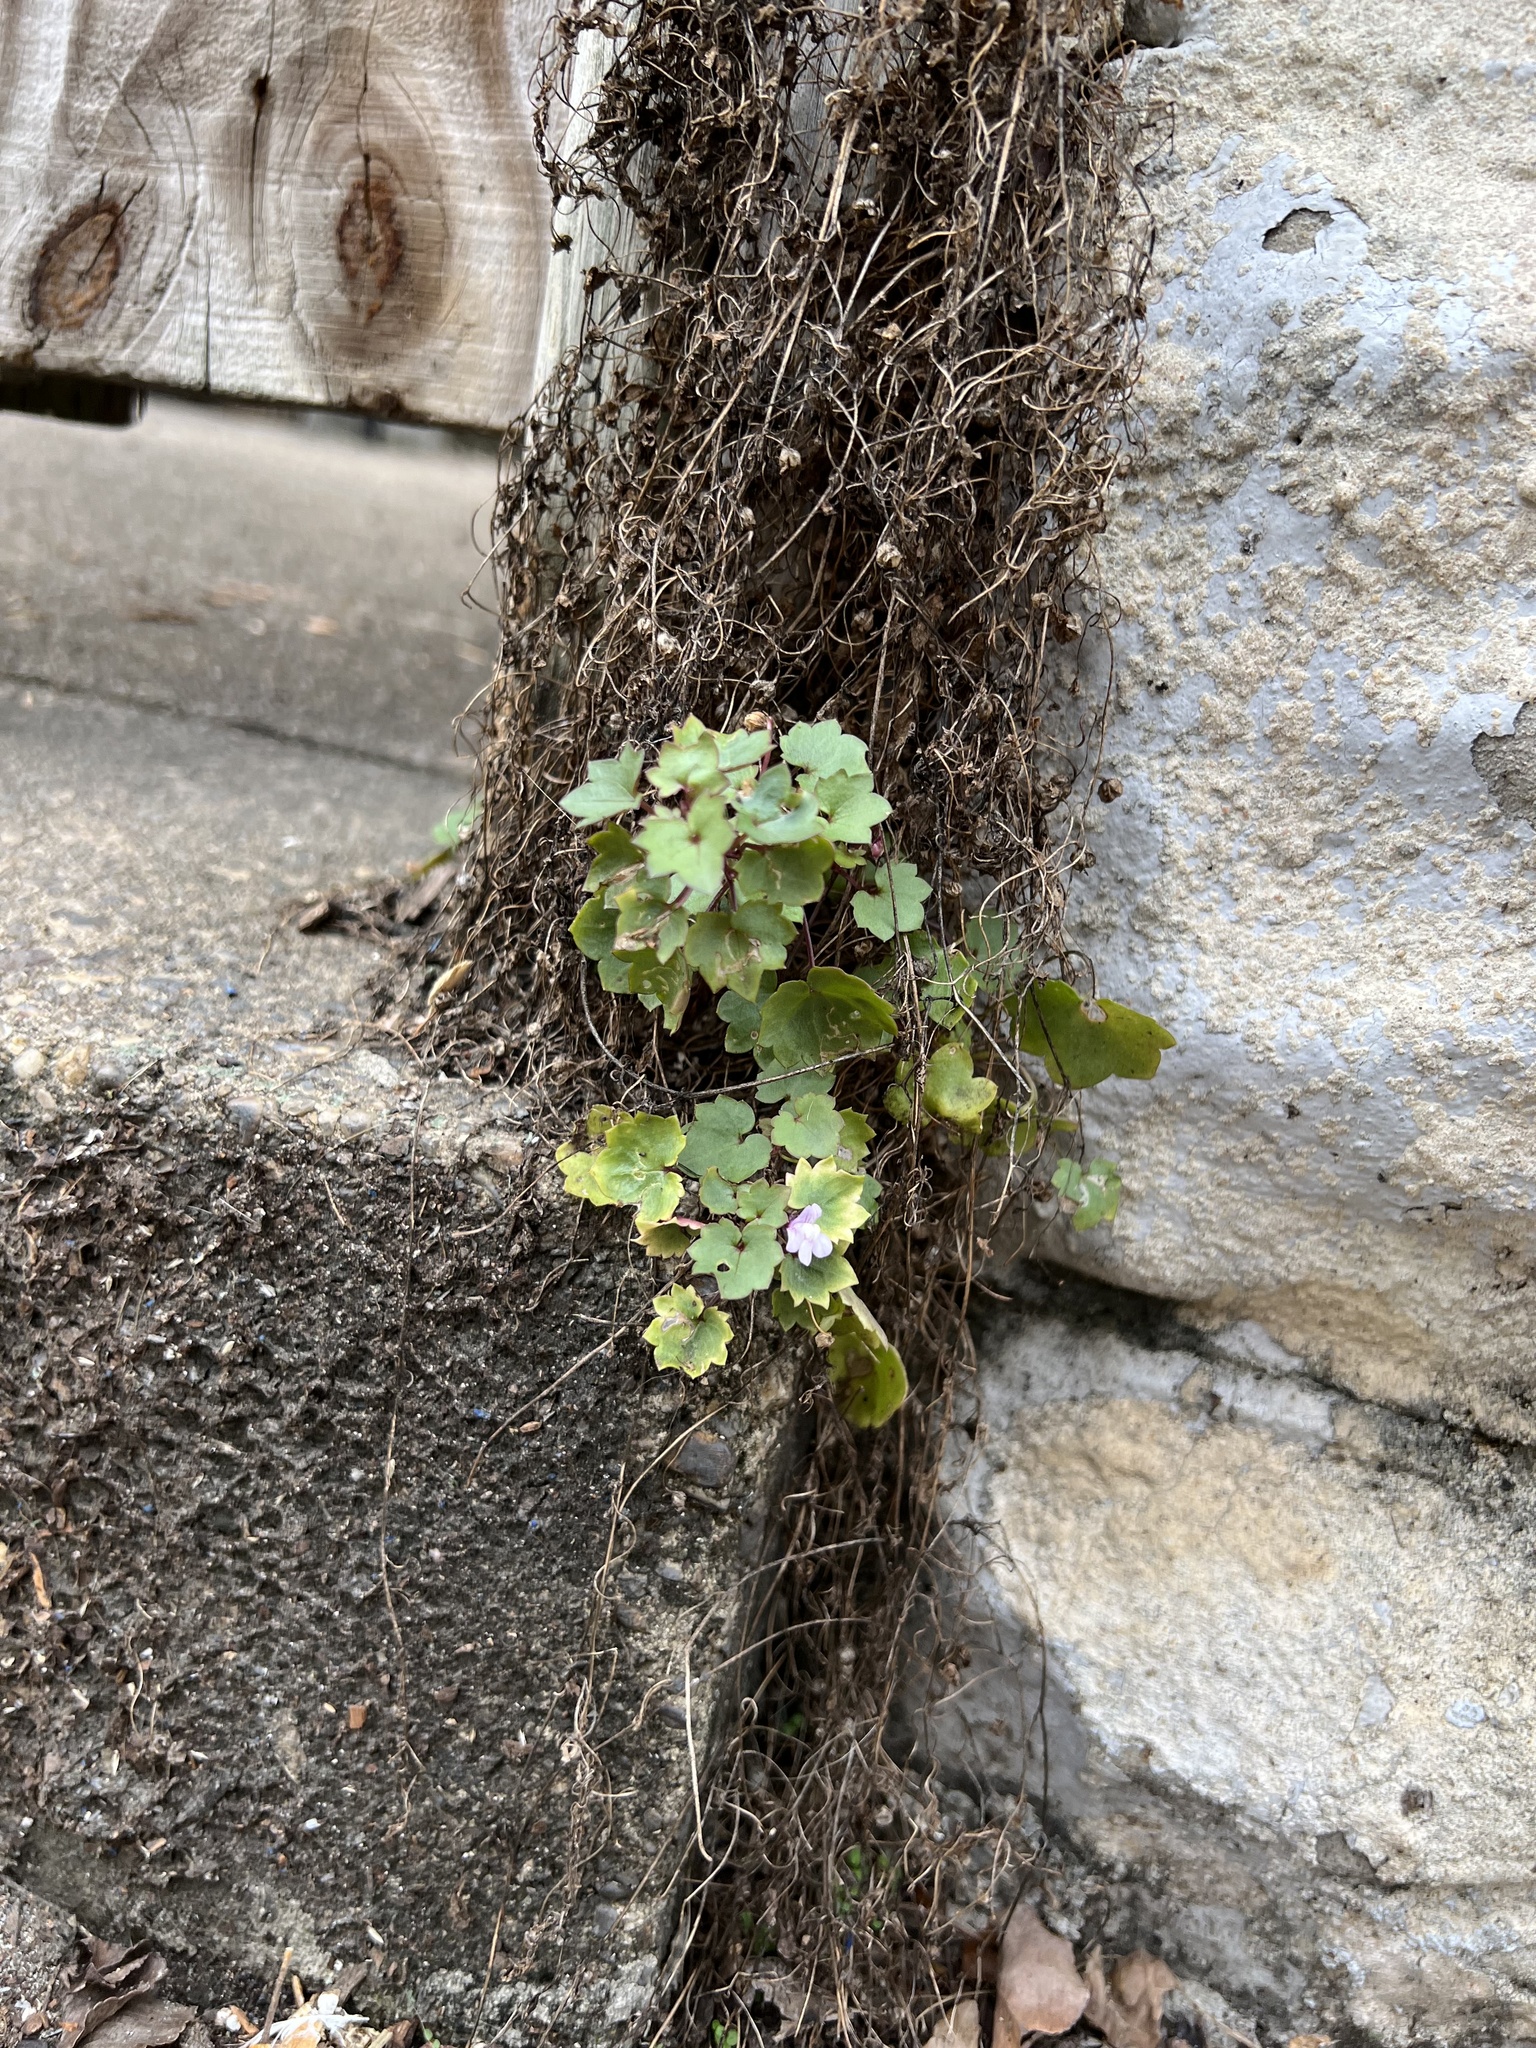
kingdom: Plantae
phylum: Tracheophyta
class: Magnoliopsida
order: Lamiales
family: Plantaginaceae
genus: Cymbalaria
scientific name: Cymbalaria muralis
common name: Ivy-leaved toadflax
